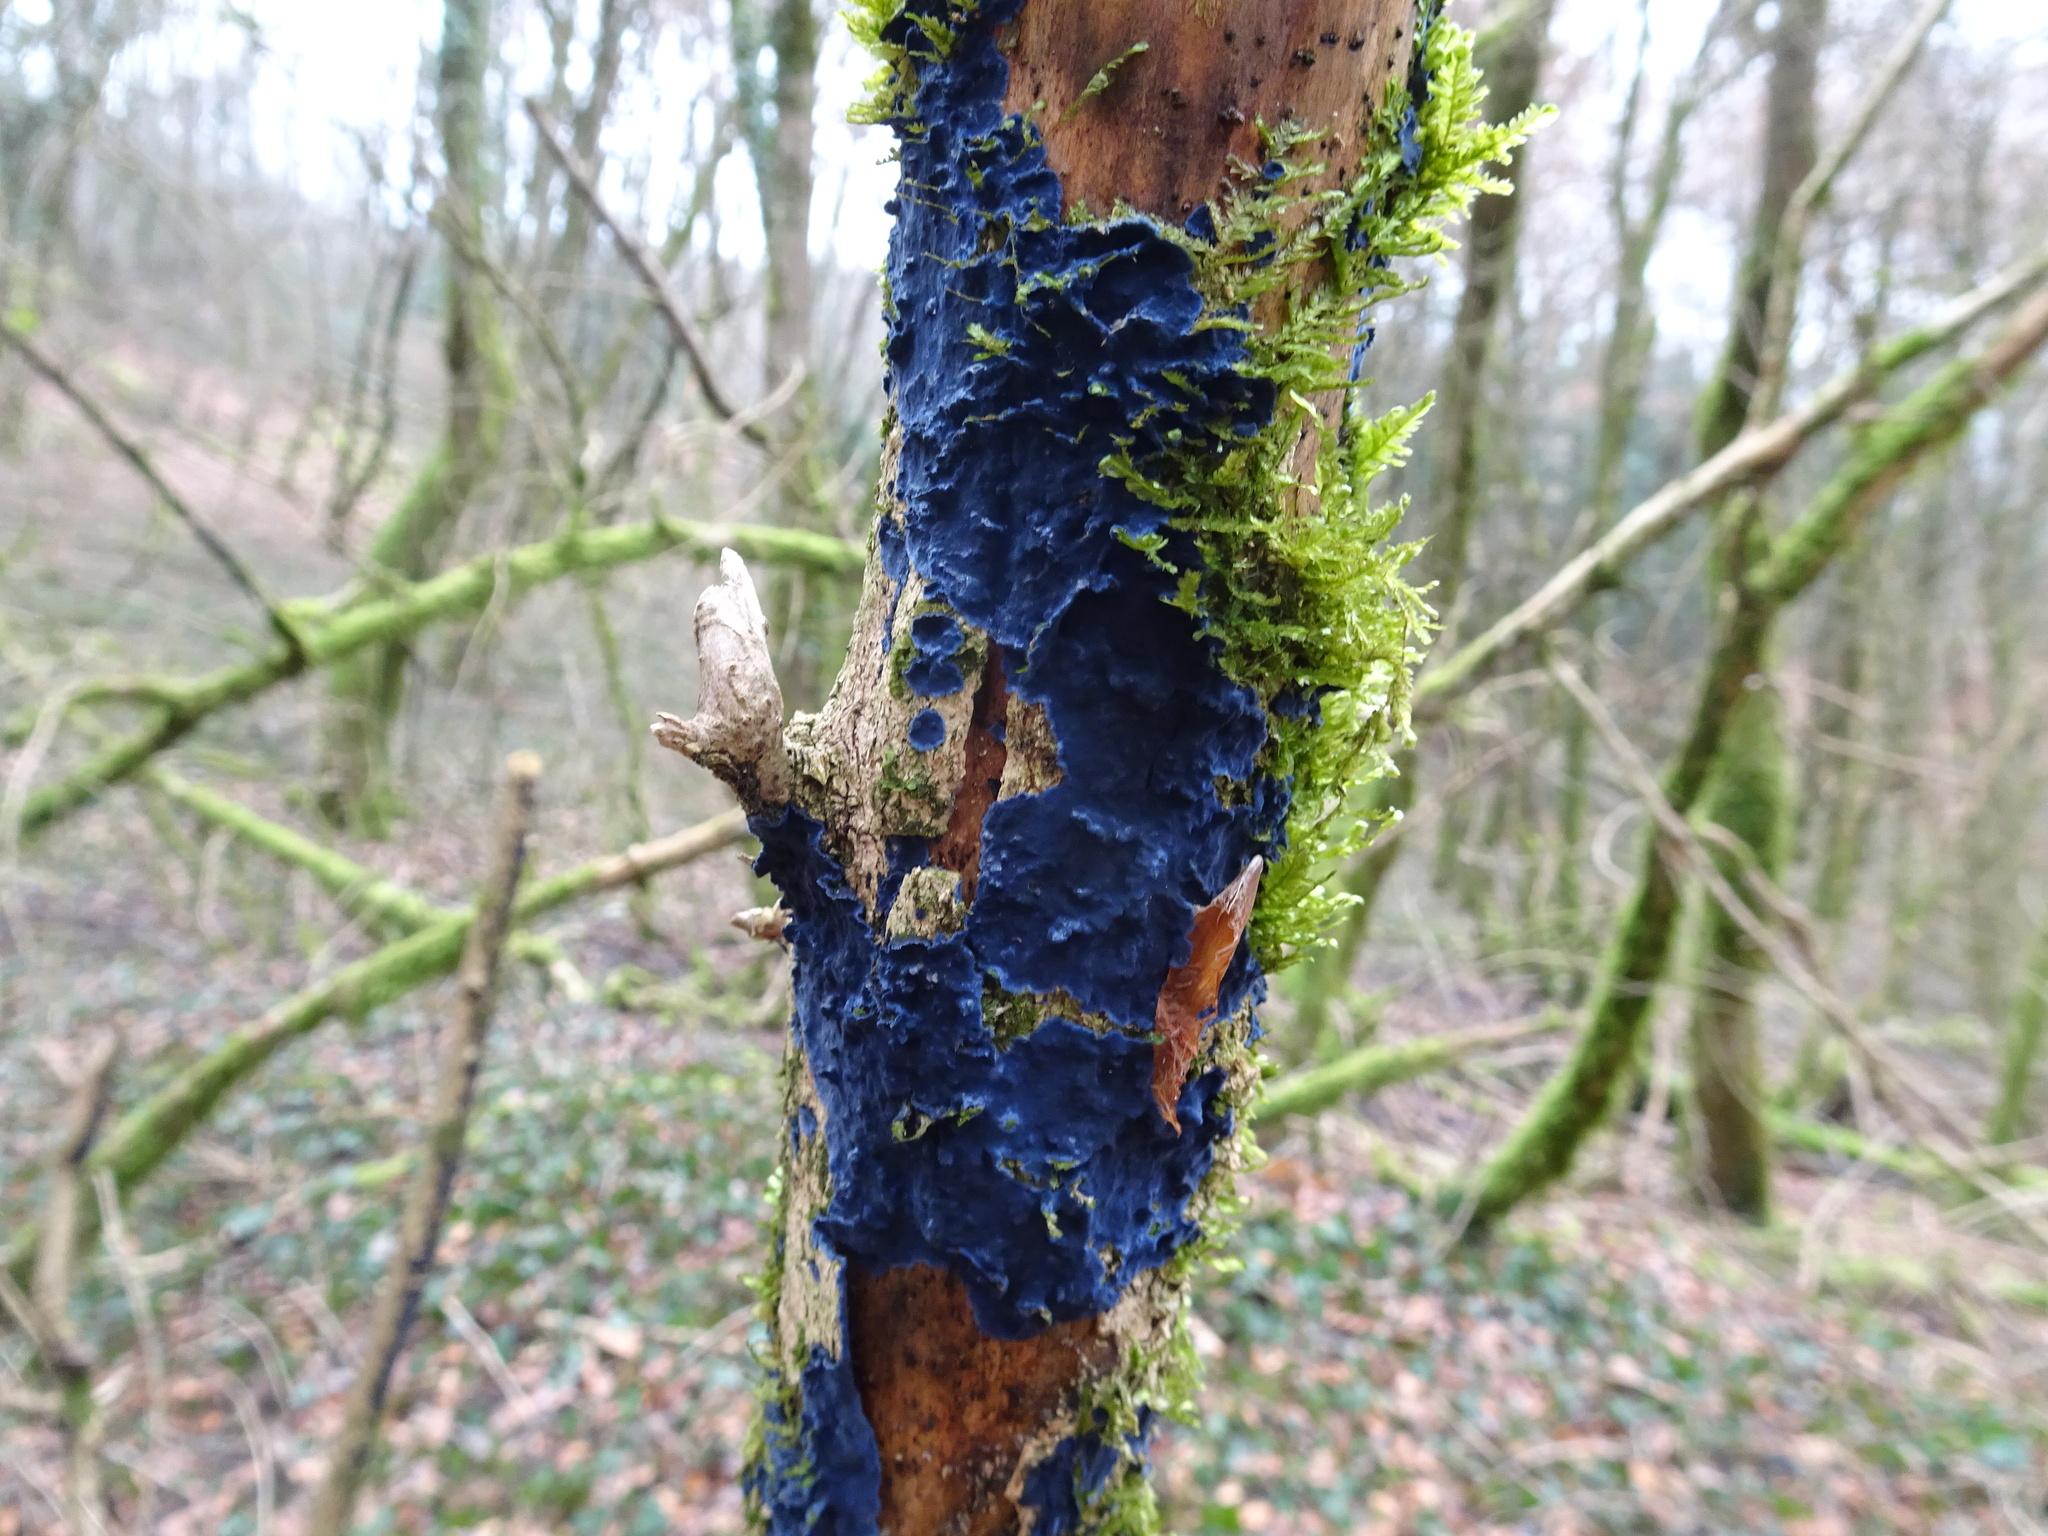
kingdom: Fungi
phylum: Basidiomycota
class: Agaricomycetes
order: Polyporales
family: Phanerochaetaceae
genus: Terana
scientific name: Terana coerulea
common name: Cobalt crust
